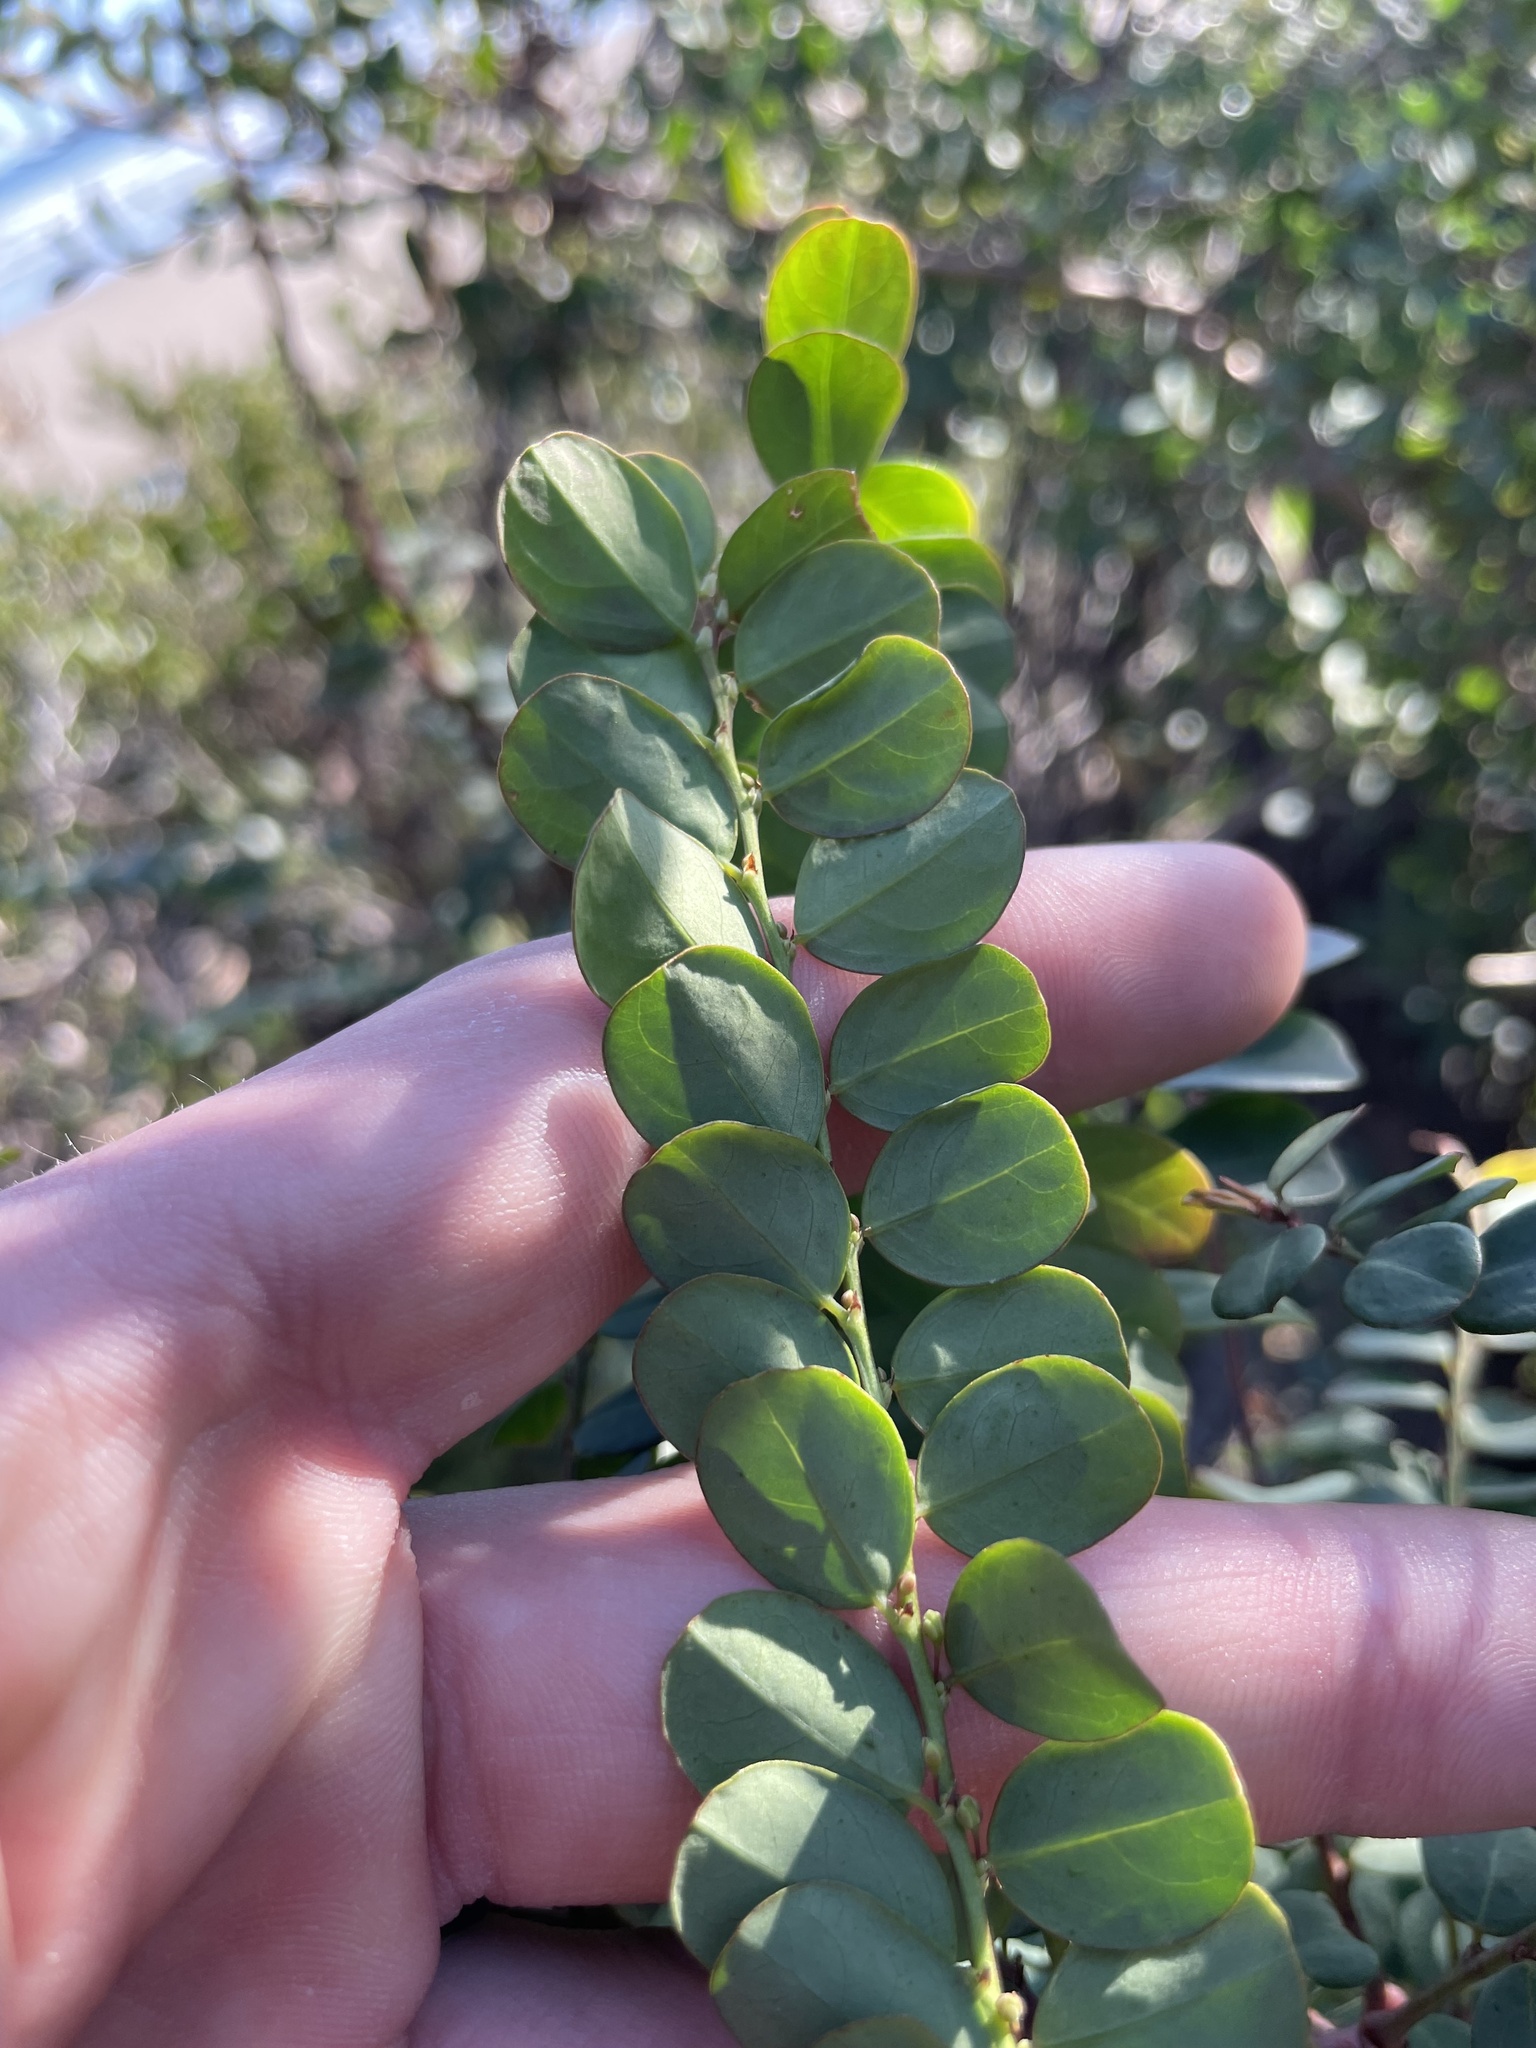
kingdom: Plantae
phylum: Tracheophyta
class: Magnoliopsida
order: Malpighiales
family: Phyllanthaceae
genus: Phyllanthus
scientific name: Phyllanthus gunnii
